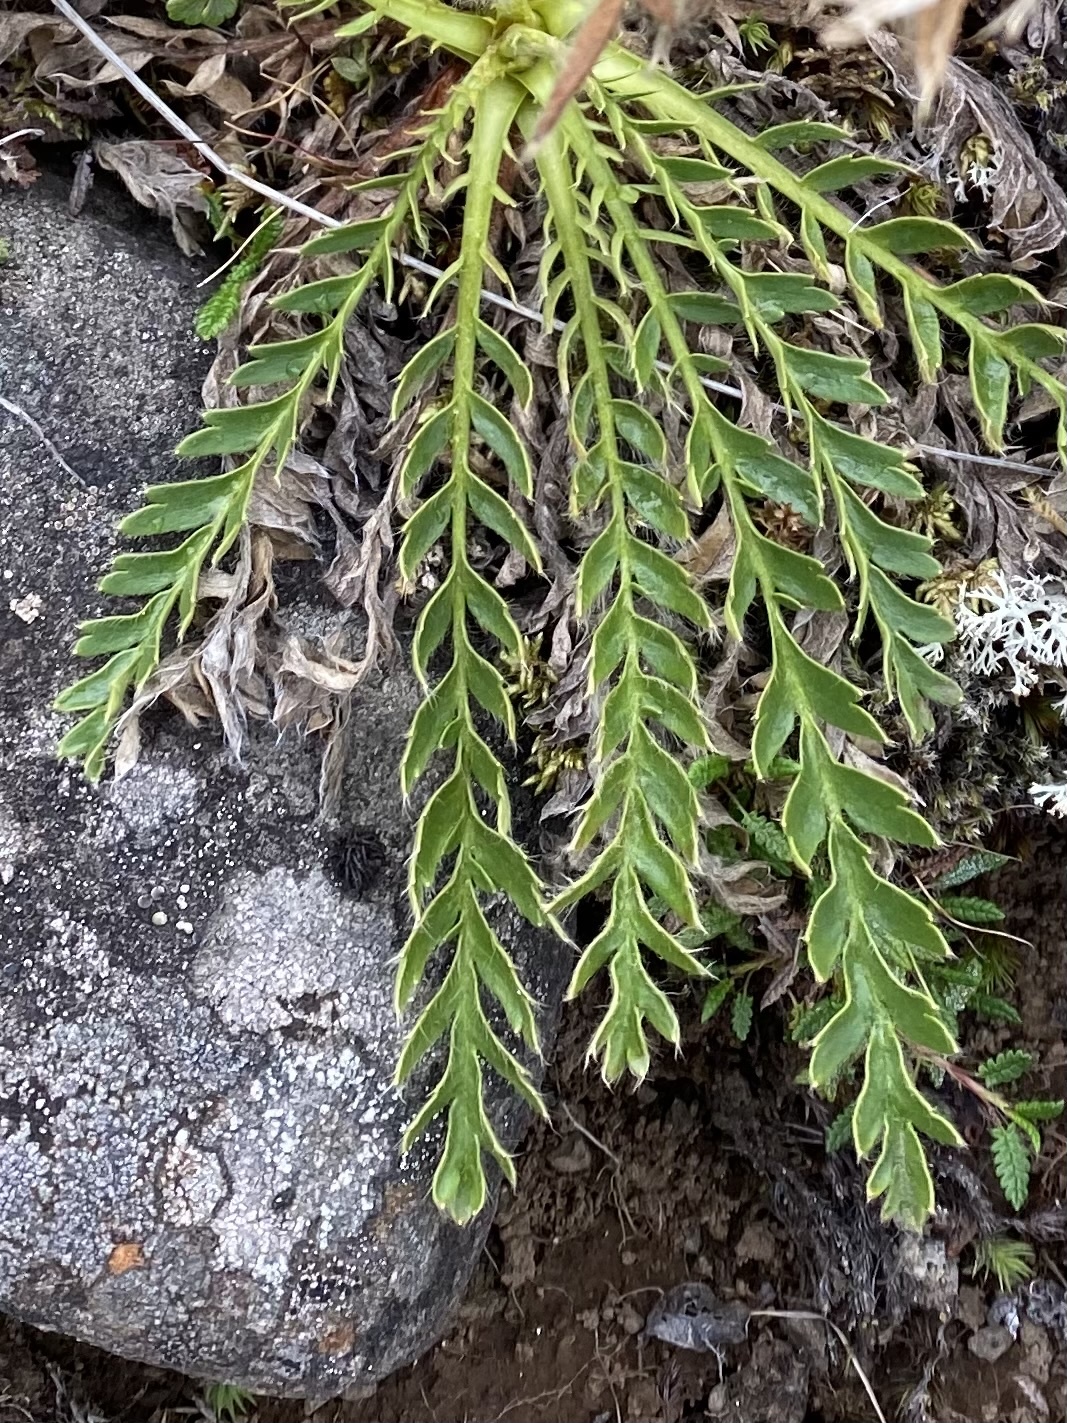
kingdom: Plantae
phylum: Tracheophyta
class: Magnoliopsida
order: Rosales
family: Rosaceae
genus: Geum
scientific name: Geum glaciale
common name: Glacier avens
